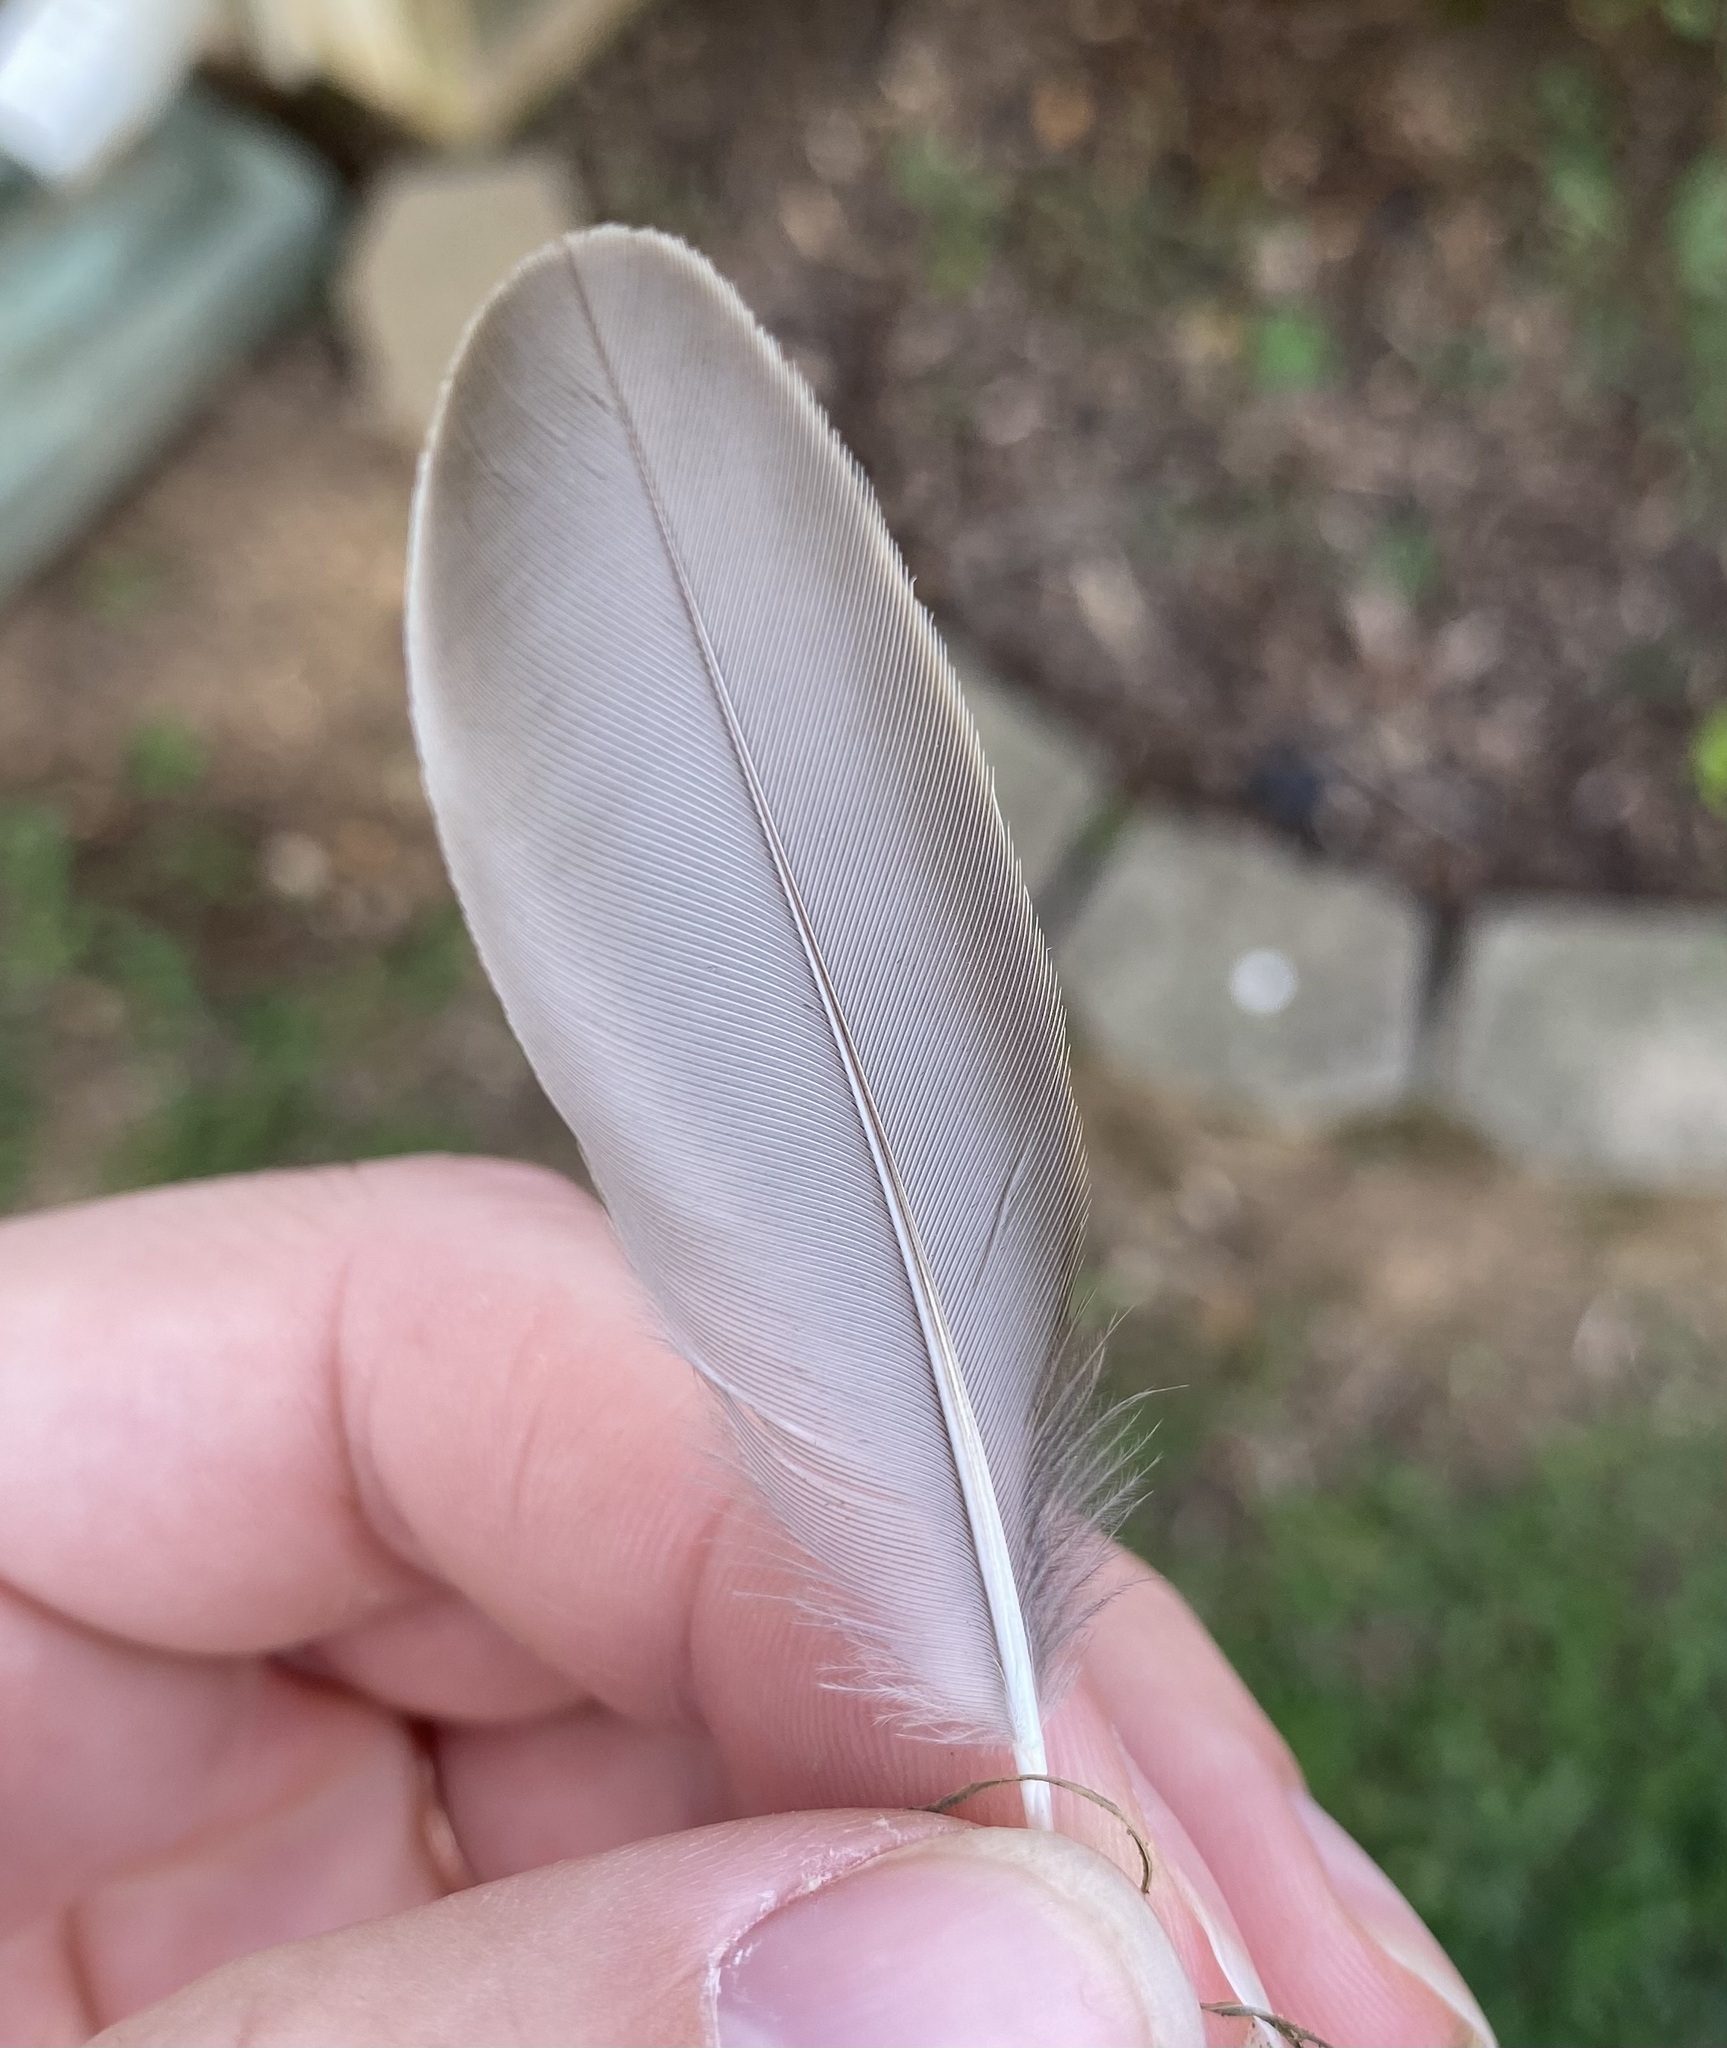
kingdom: Animalia
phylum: Chordata
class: Aves
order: Passeriformes
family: Sturnidae
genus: Sturnus
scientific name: Sturnus vulgaris
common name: Common starling
